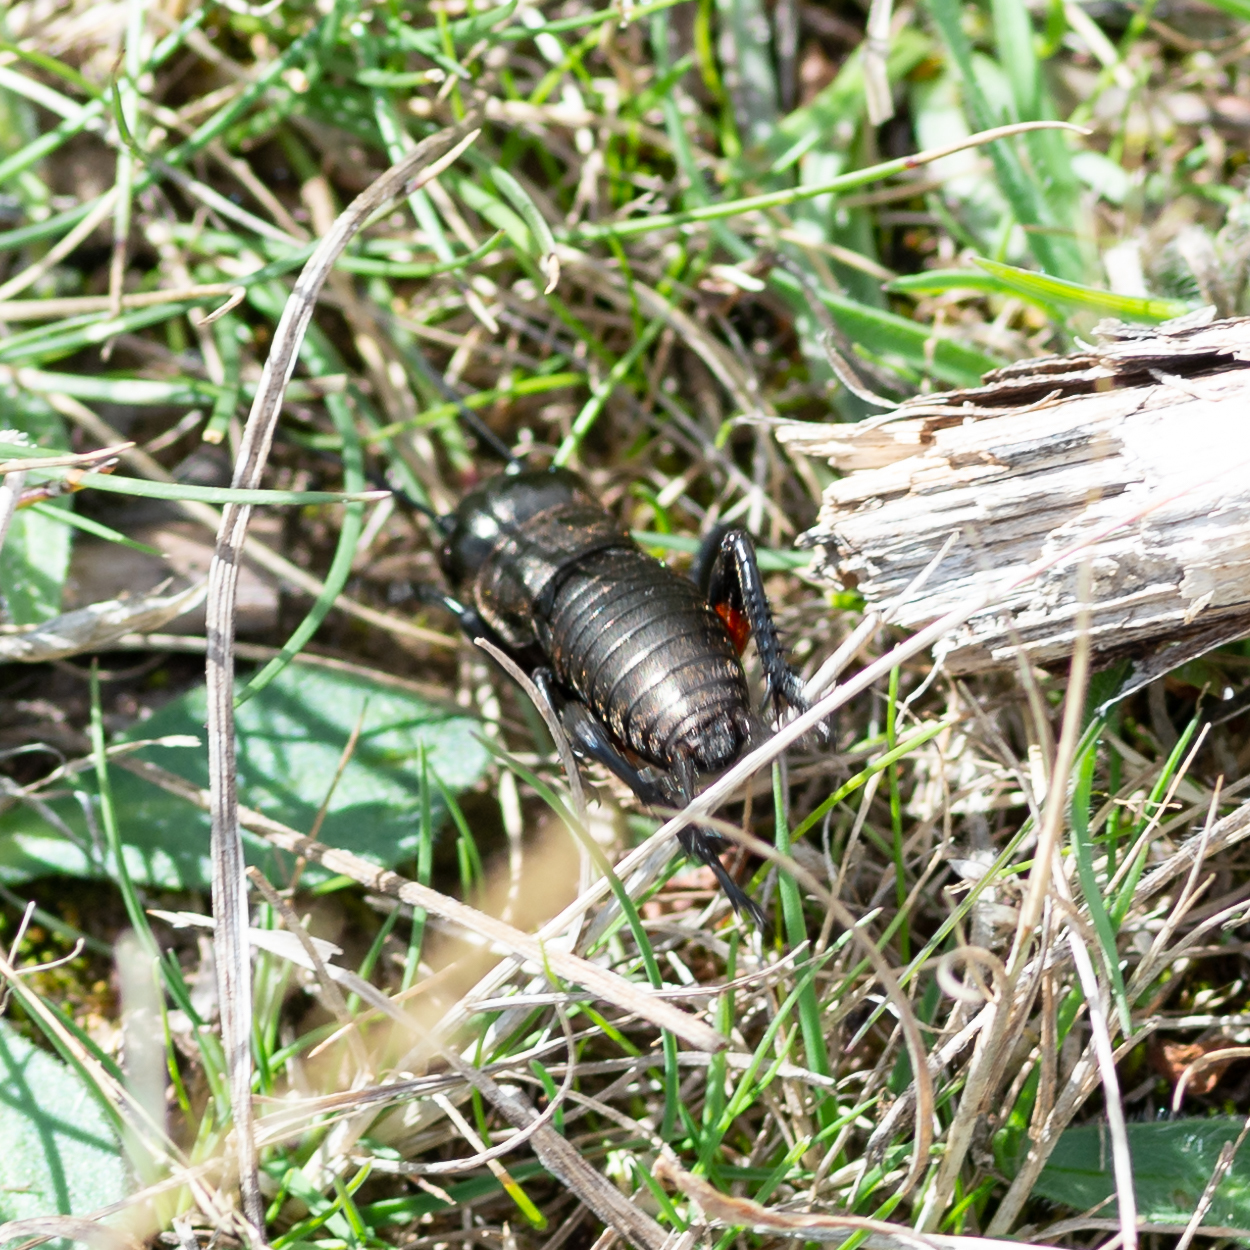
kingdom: Animalia
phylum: Arthropoda
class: Insecta
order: Orthoptera
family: Gryllidae
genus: Gryllus
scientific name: Gryllus campestris
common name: Field cricket
